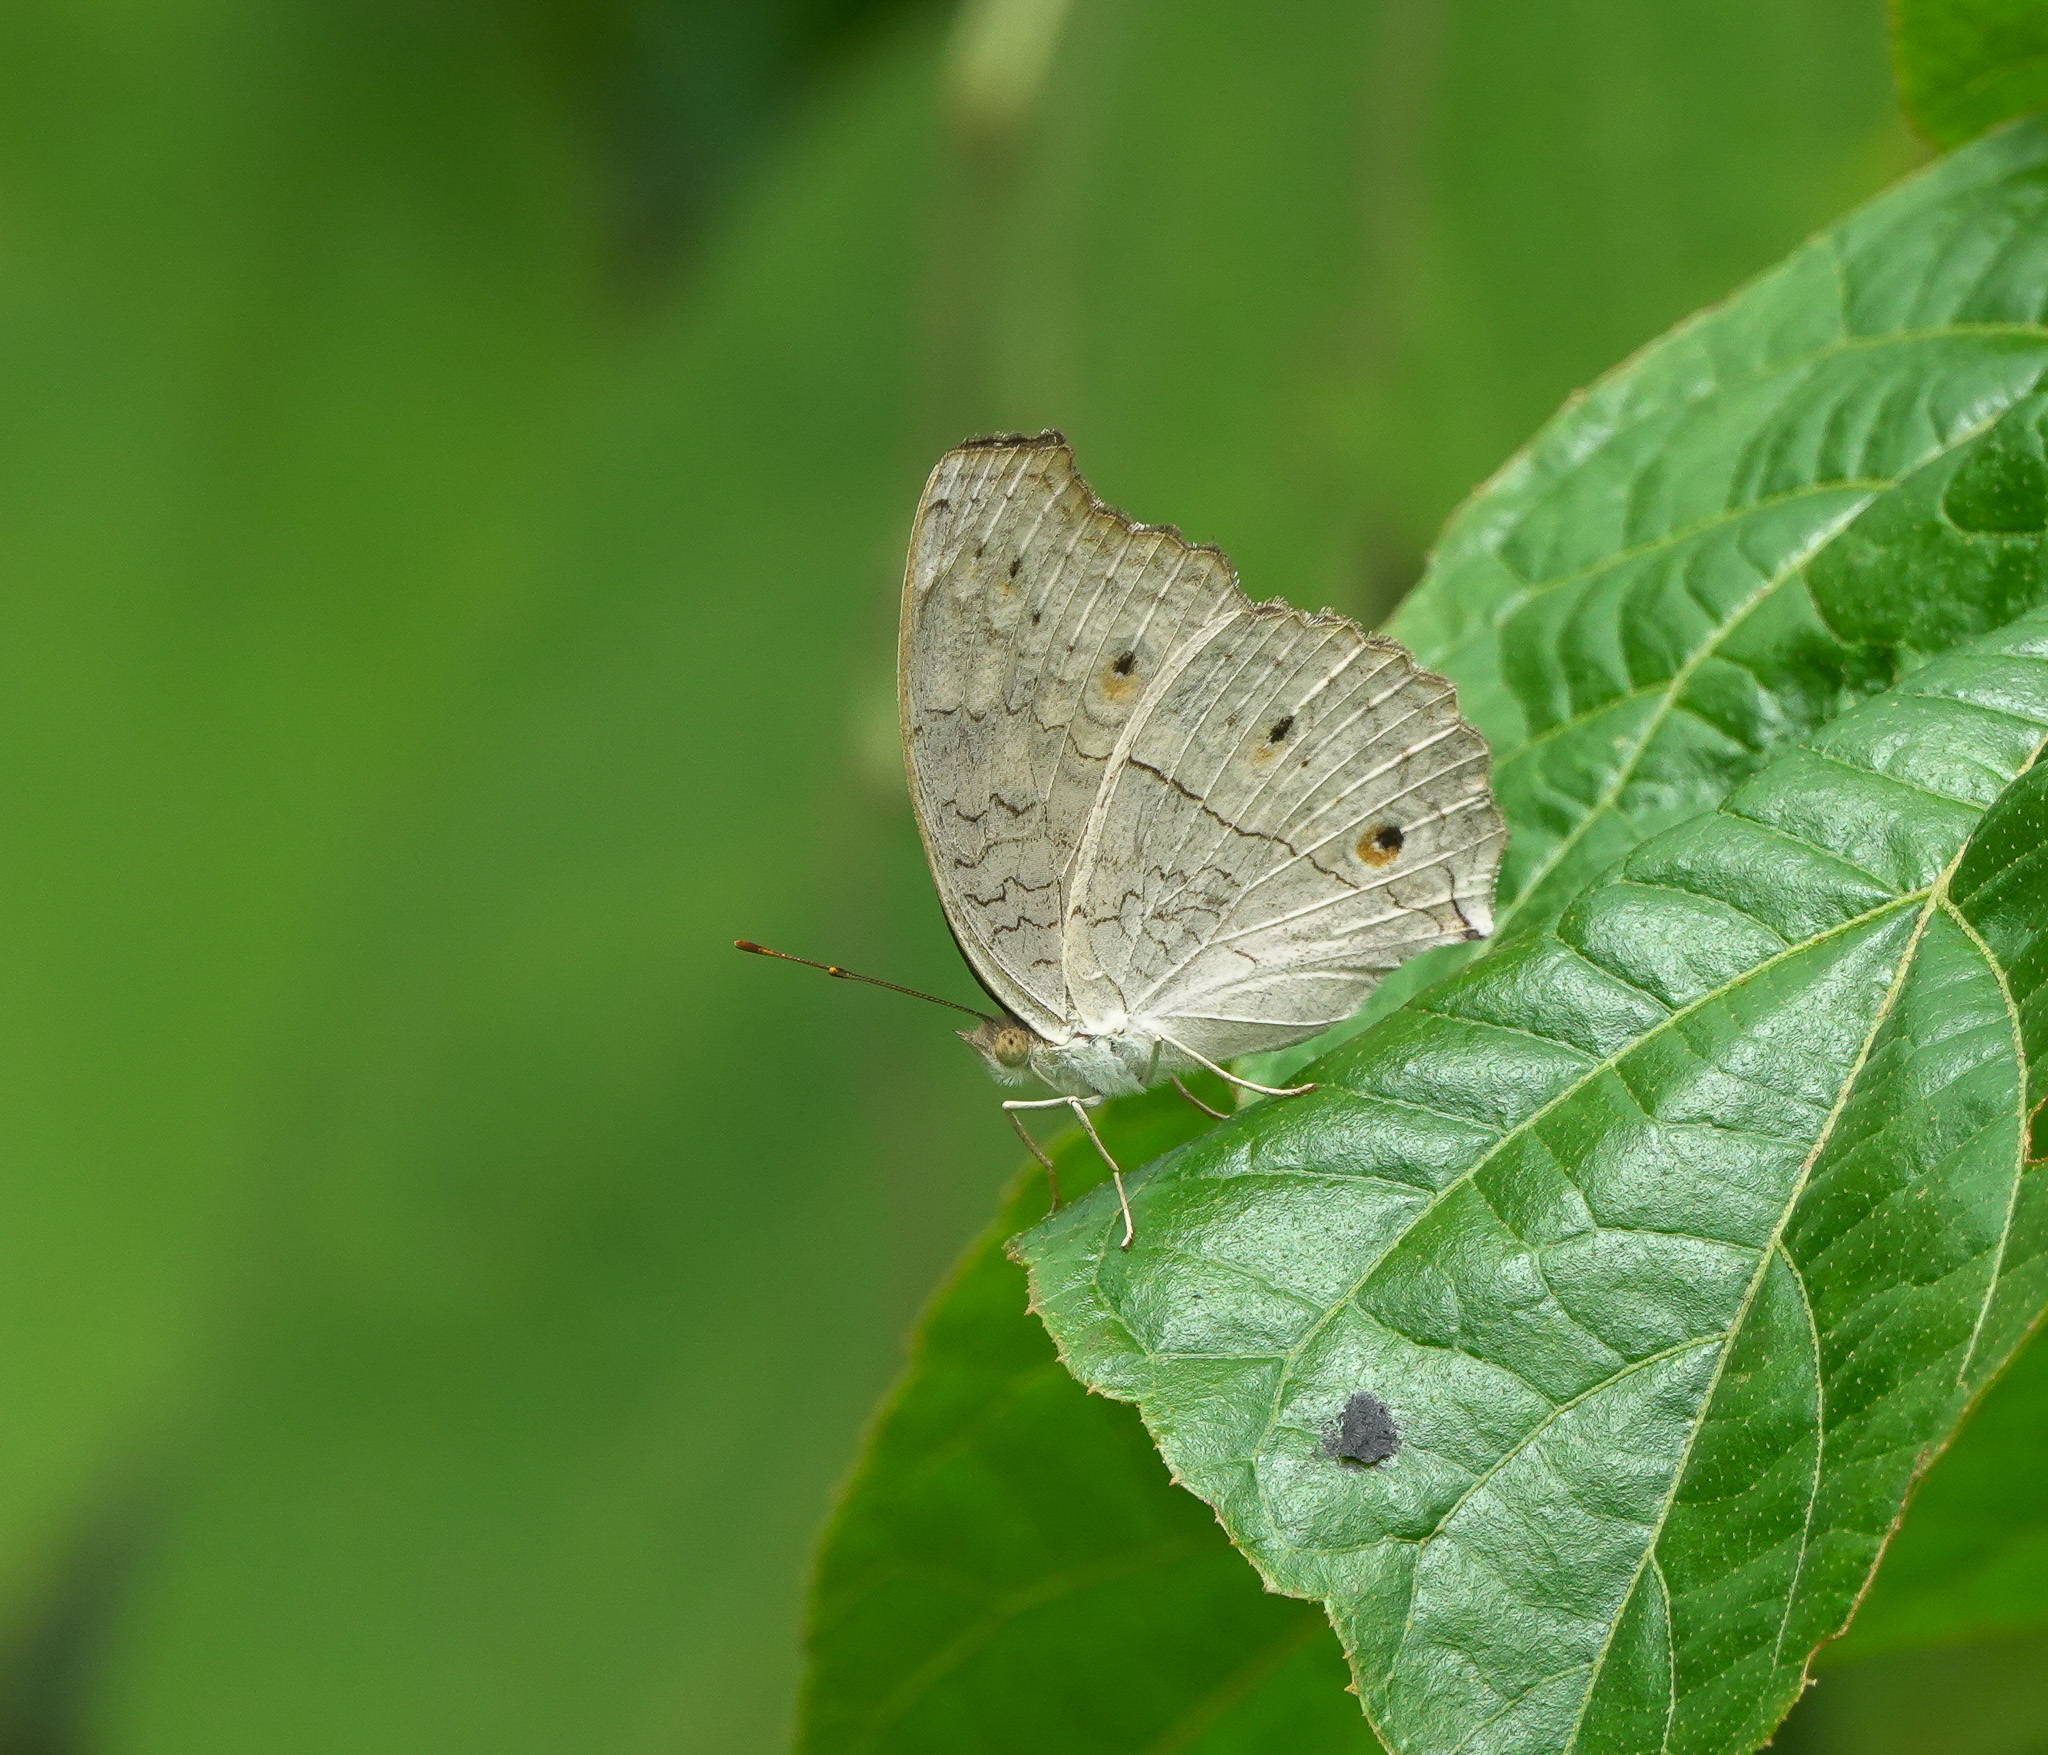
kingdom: Animalia
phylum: Arthropoda
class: Insecta
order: Lepidoptera
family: Nymphalidae
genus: Junonia
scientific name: Junonia atlites
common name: Grey pansy
